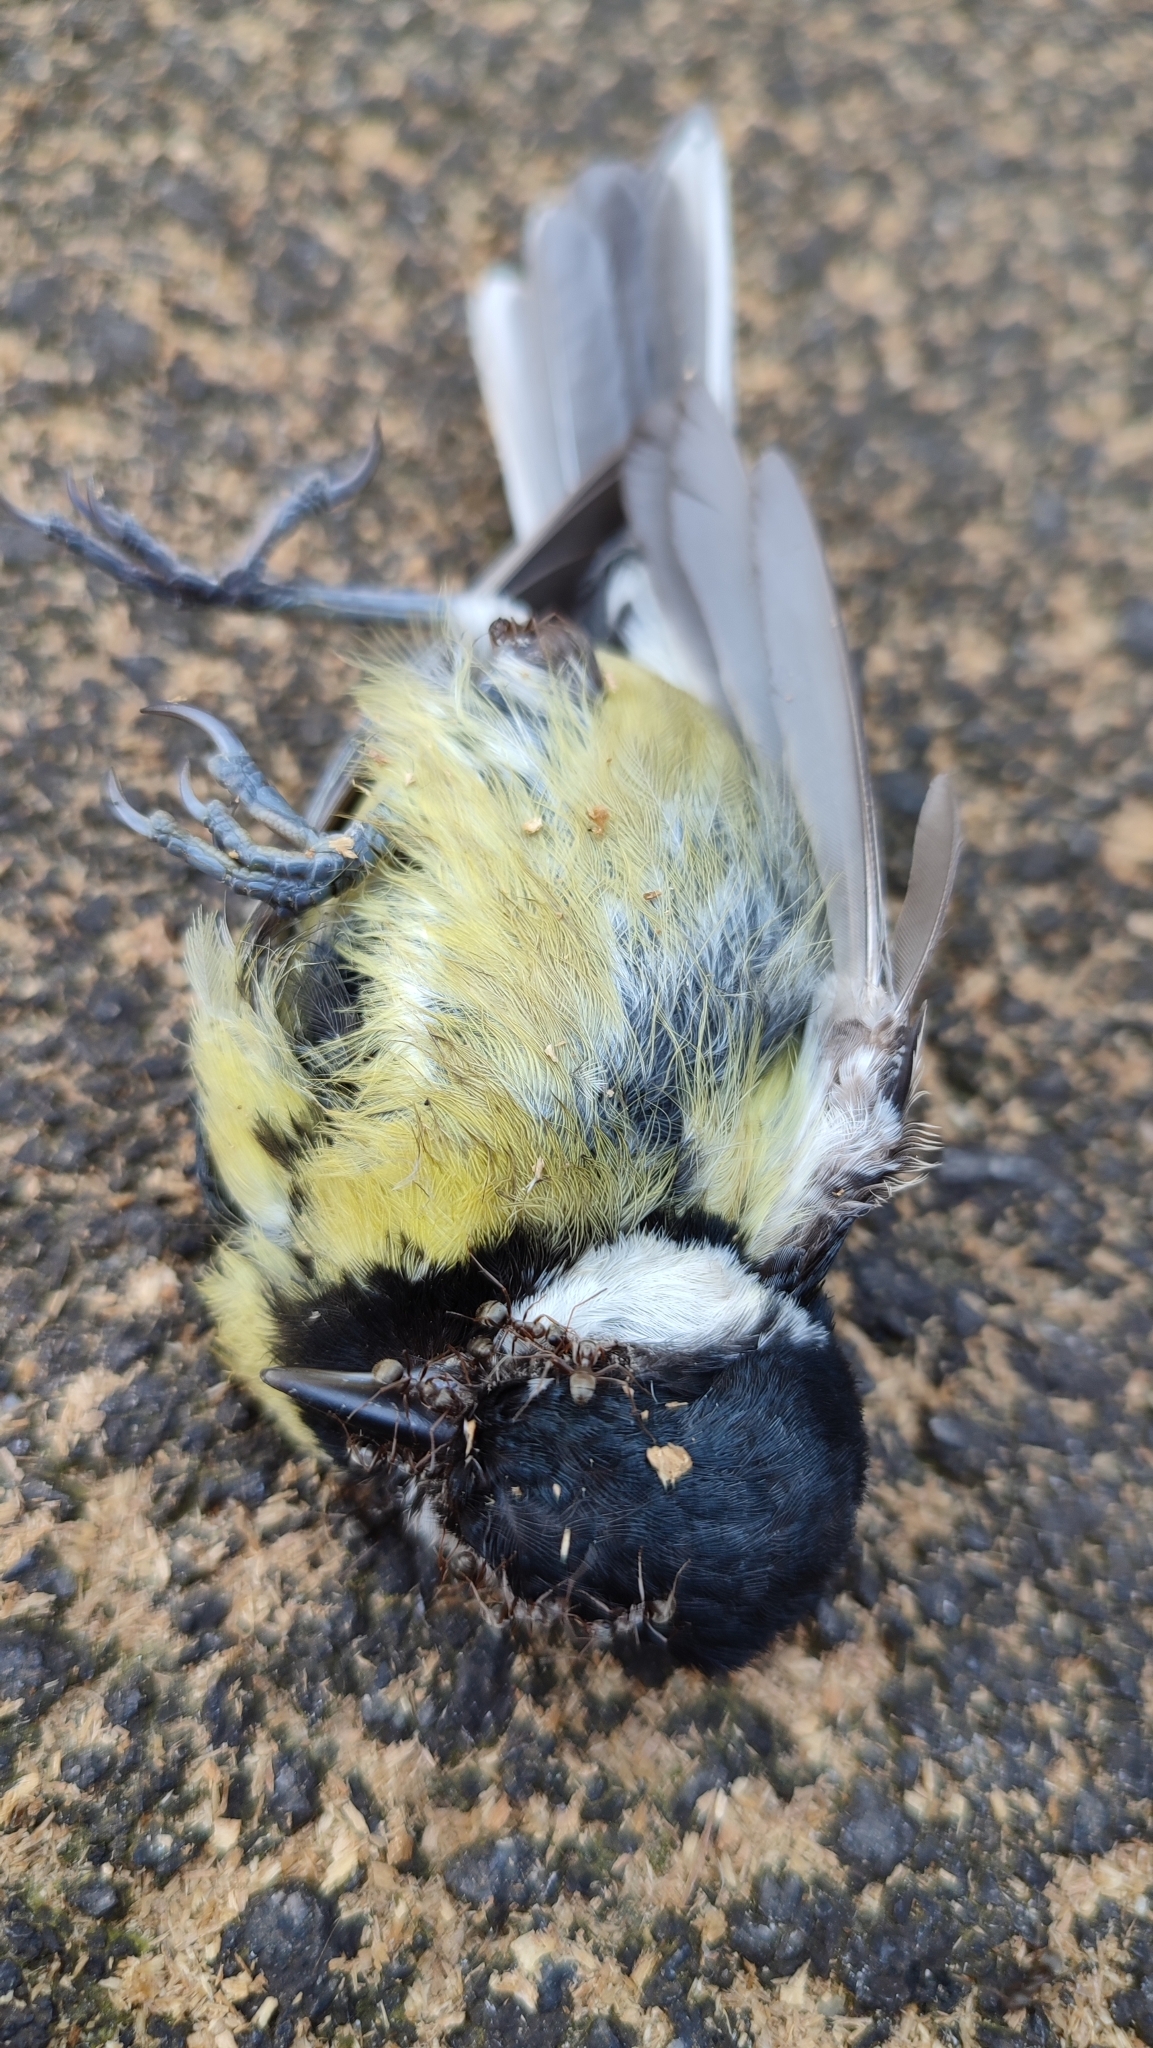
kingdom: Animalia
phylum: Chordata
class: Aves
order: Passeriformes
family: Paridae
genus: Parus
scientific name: Parus major
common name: Great tit
